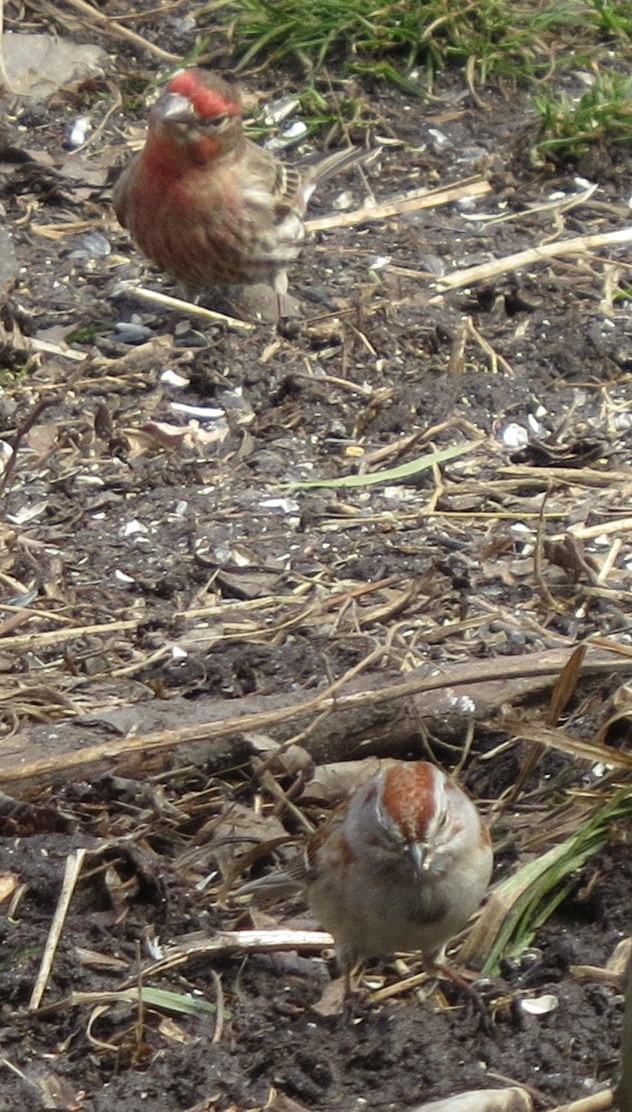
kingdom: Animalia
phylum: Chordata
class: Aves
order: Passeriformes
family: Passerellidae
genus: Spizelloides
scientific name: Spizelloides arborea
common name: American tree sparrow
